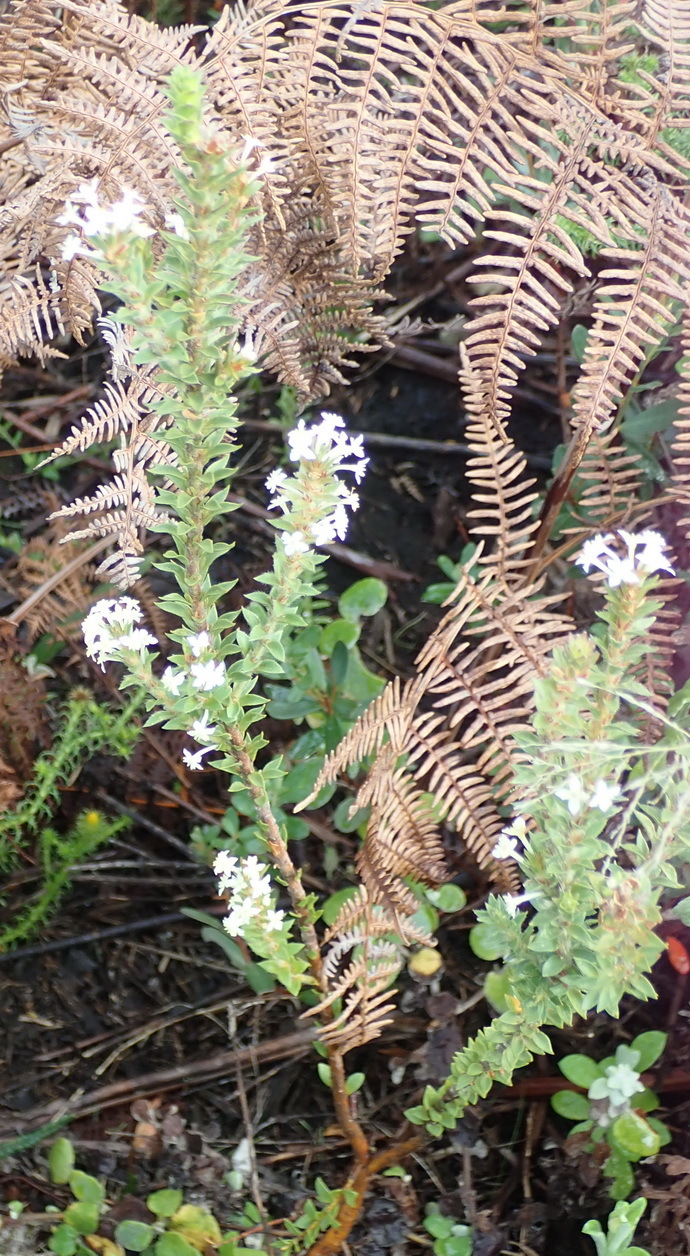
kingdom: Plantae
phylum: Tracheophyta
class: Magnoliopsida
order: Malvales
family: Thymelaeaceae
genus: Struthiola
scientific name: Struthiola hirsuta
